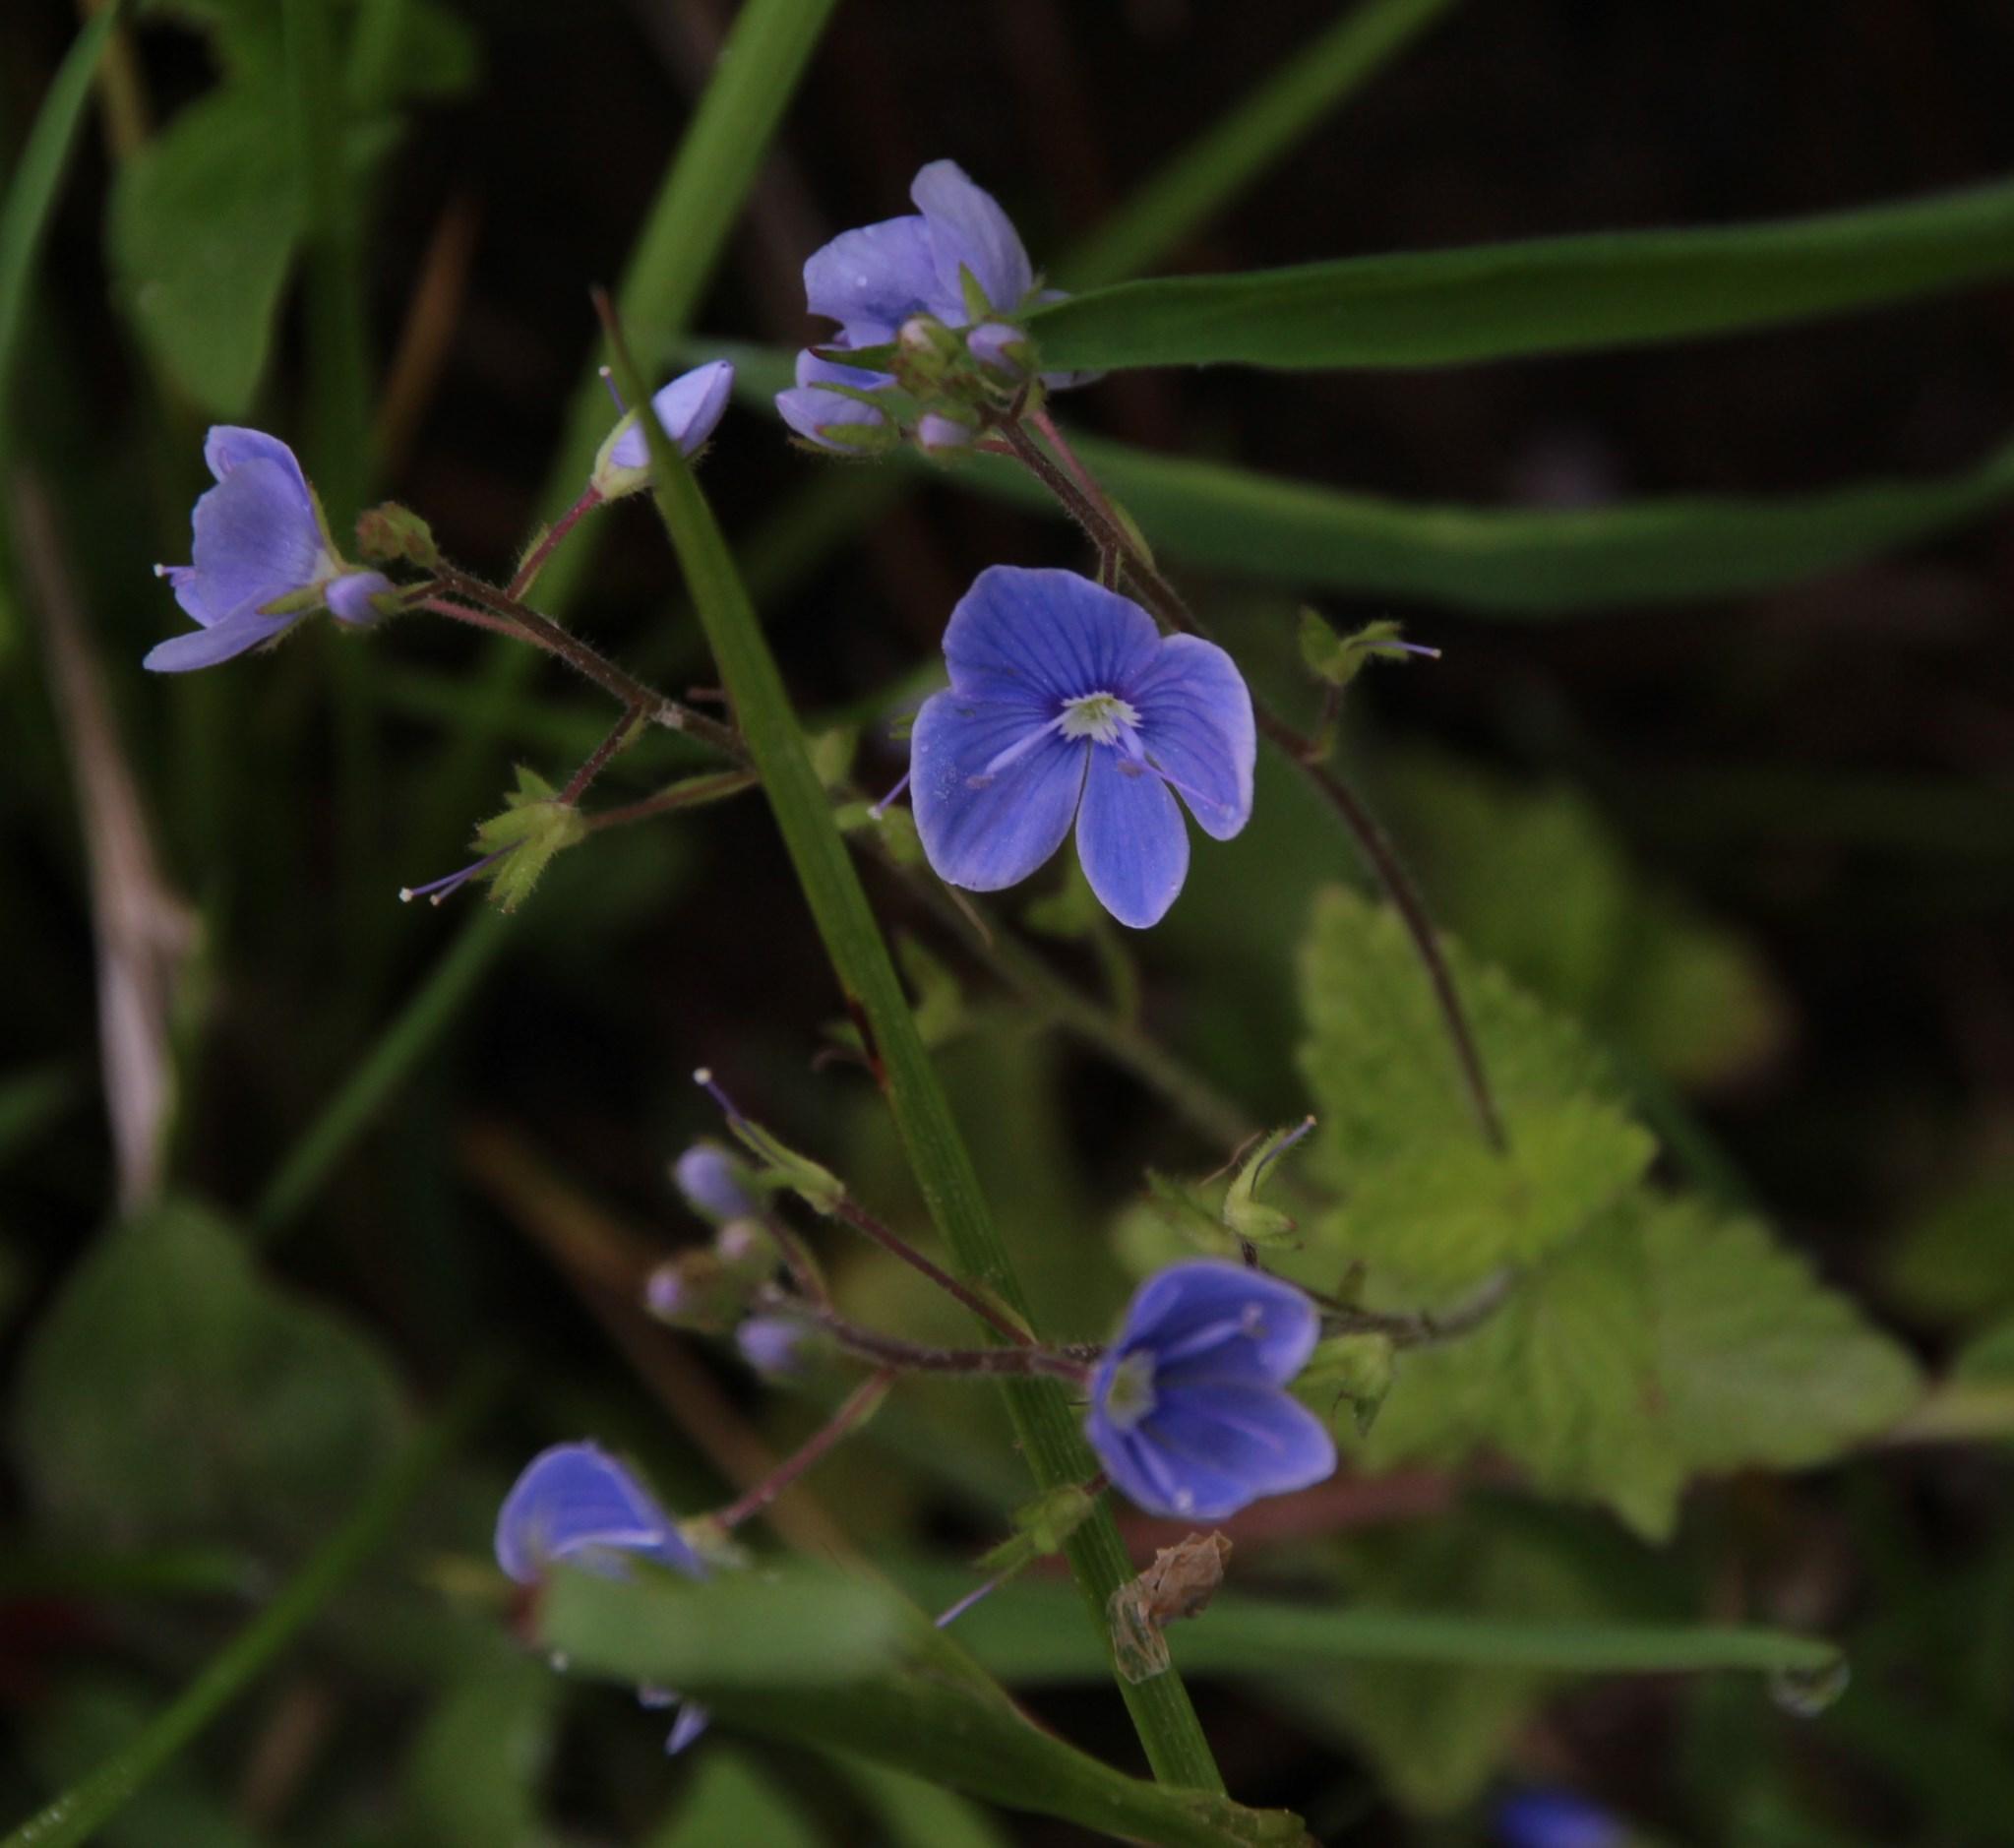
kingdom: Plantae
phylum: Tracheophyta
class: Magnoliopsida
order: Lamiales
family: Plantaginaceae
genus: Veronica
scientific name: Veronica chamaedrys
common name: Germander speedwell
